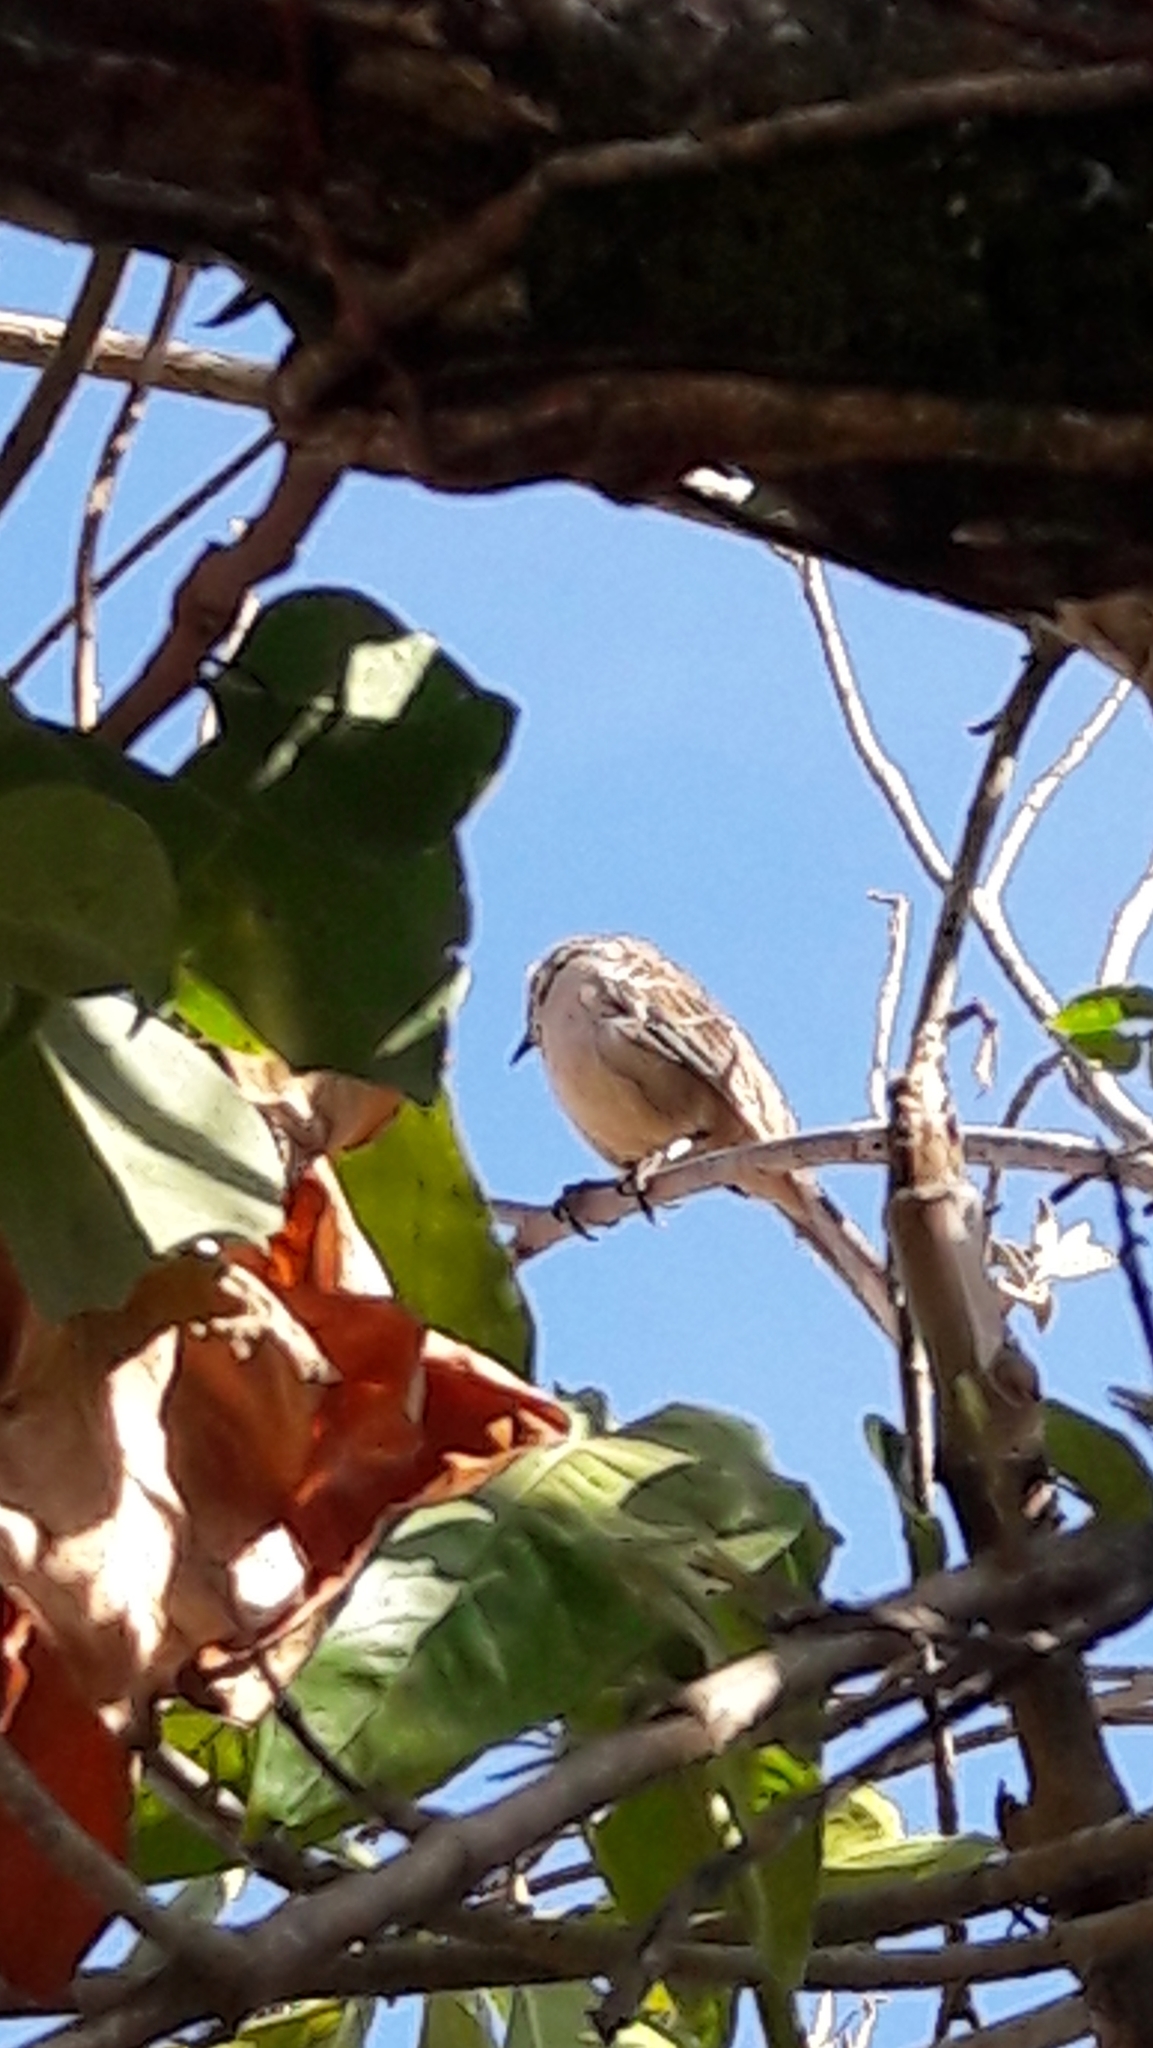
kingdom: Animalia
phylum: Chordata
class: Aves
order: Passeriformes
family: Mimidae
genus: Mimus
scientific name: Mimus saturninus
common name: Chalk-browed mockingbird
